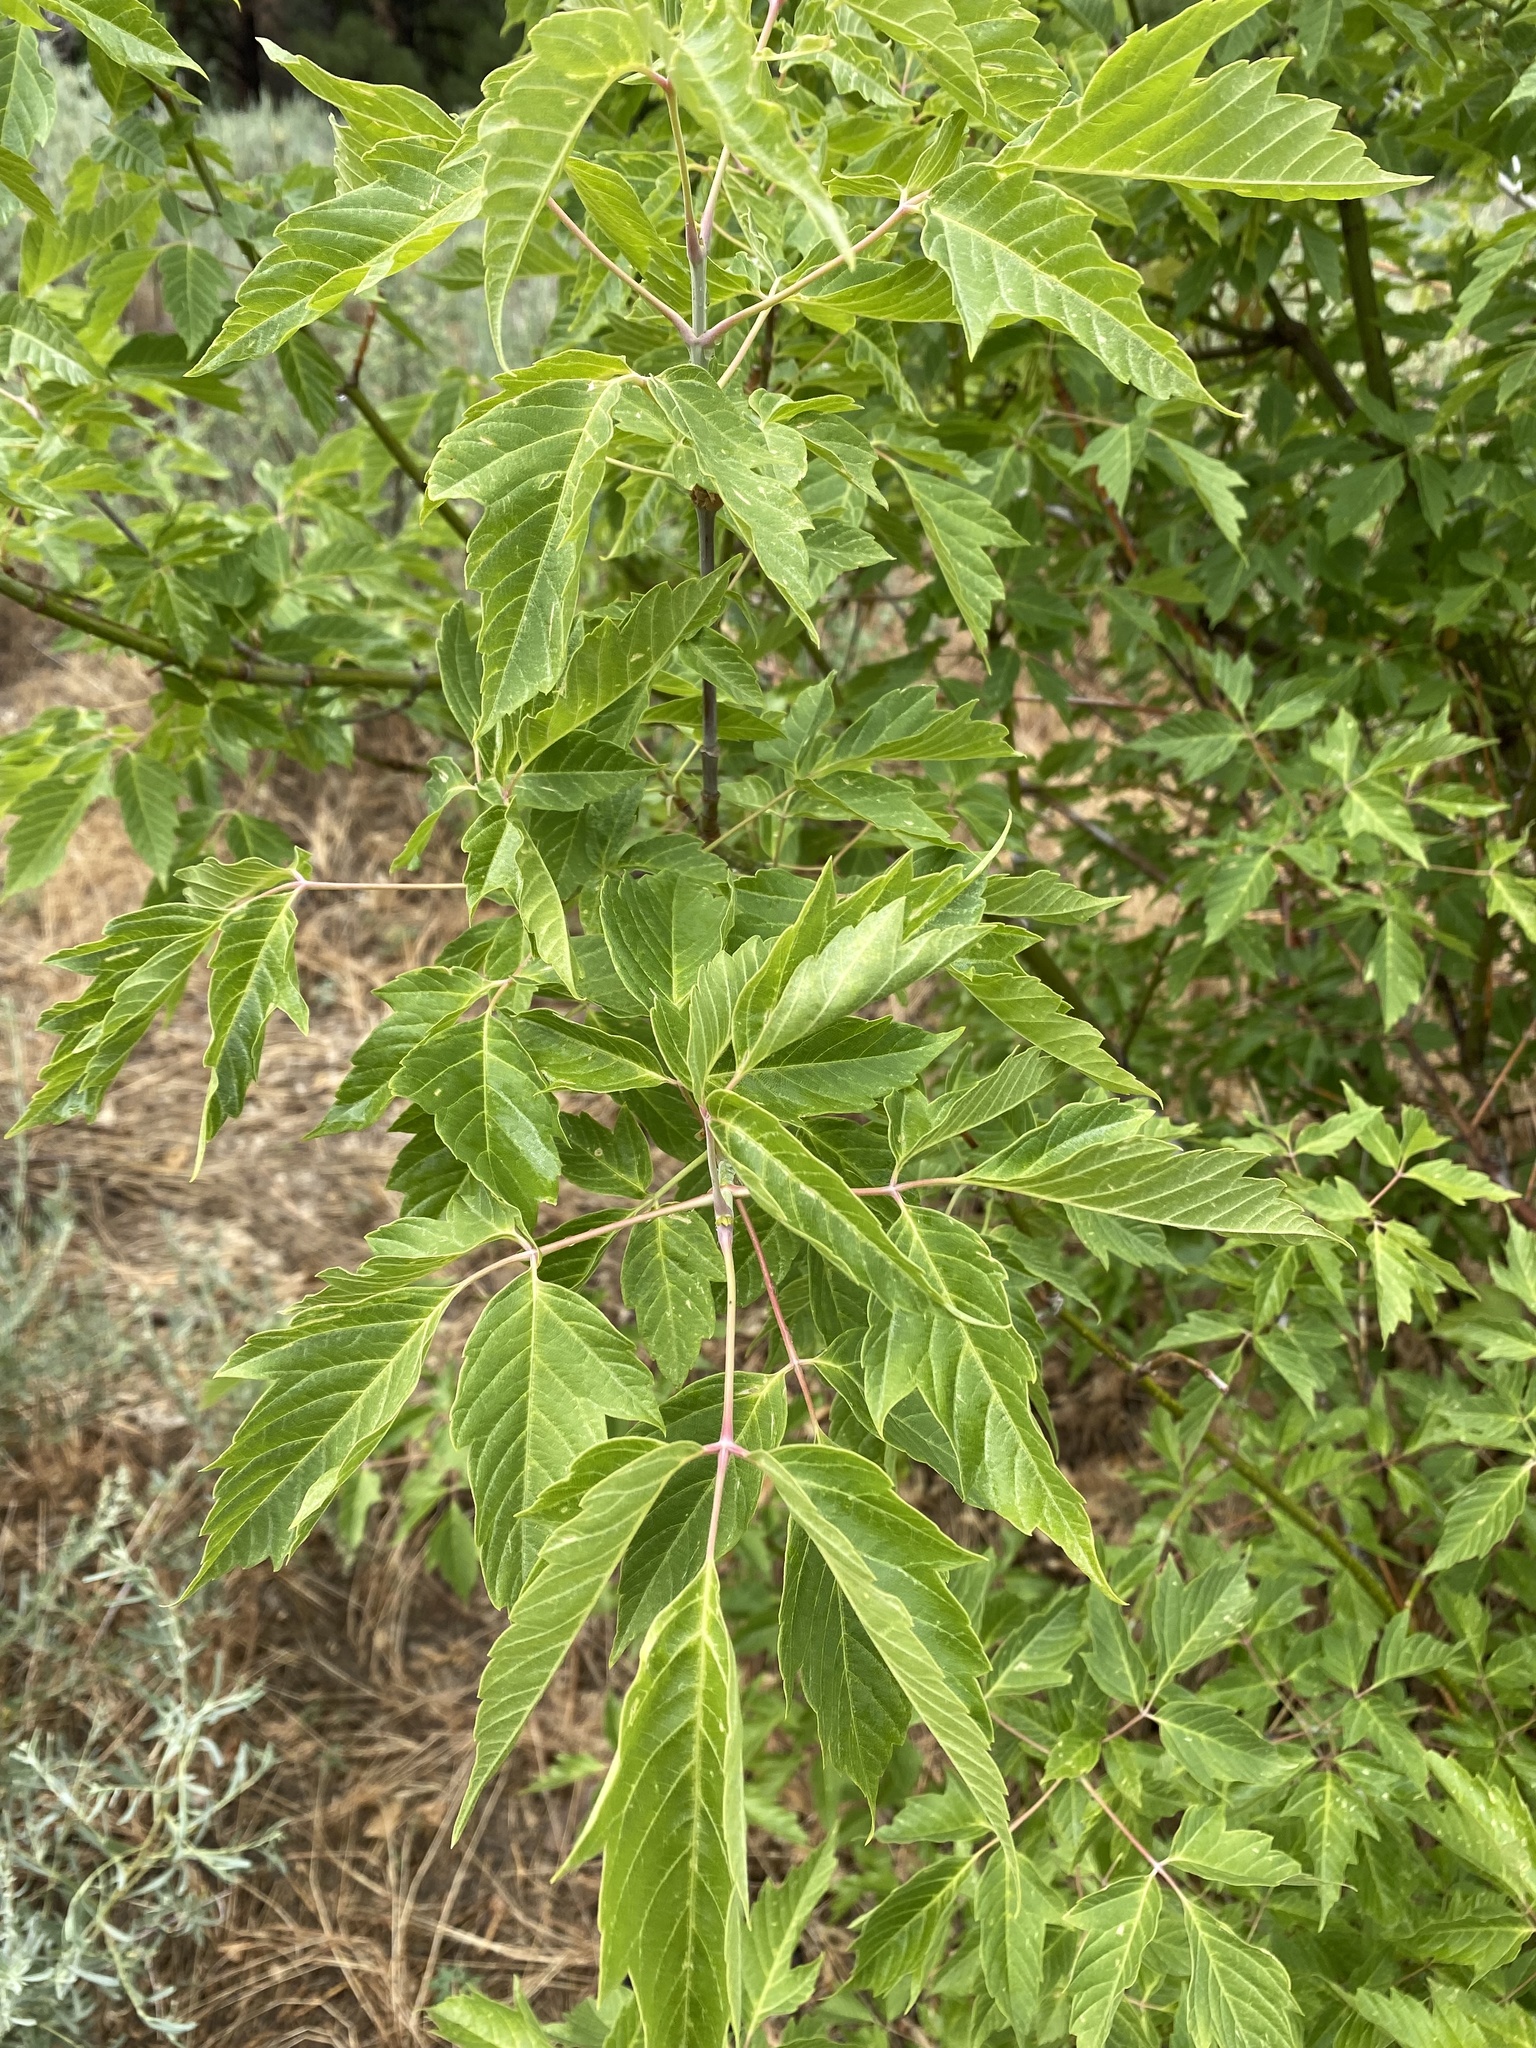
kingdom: Plantae
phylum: Tracheophyta
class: Magnoliopsida
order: Sapindales
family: Sapindaceae
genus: Acer
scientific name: Acer negundo
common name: Ashleaf maple
